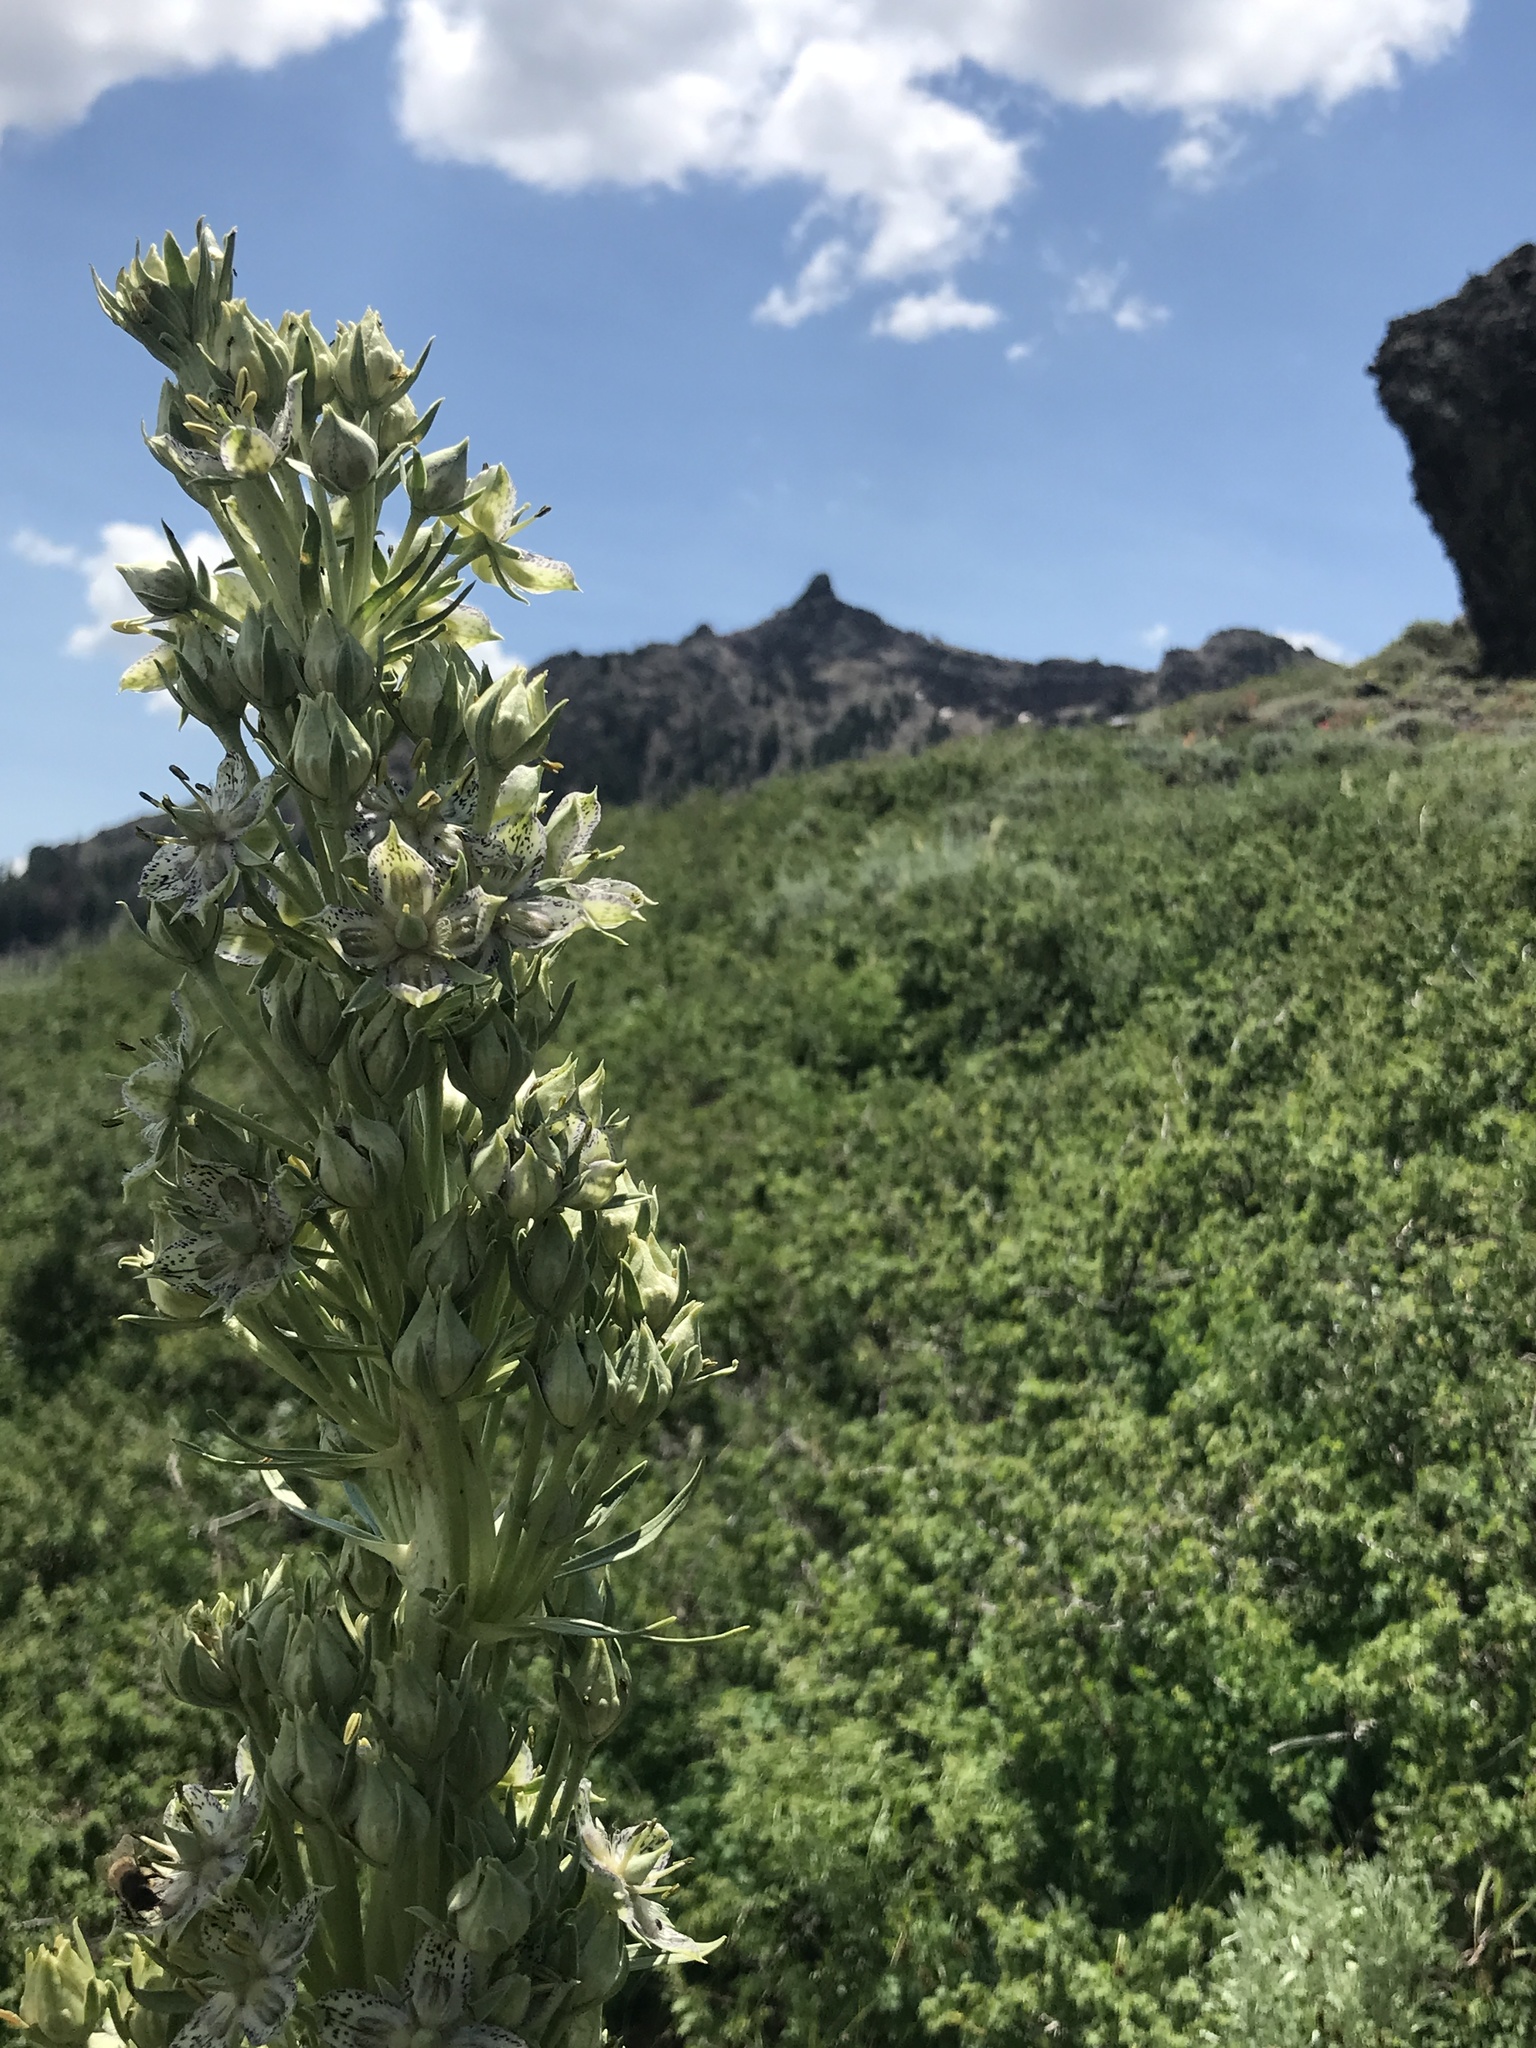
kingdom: Plantae
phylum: Tracheophyta
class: Magnoliopsida
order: Gentianales
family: Gentianaceae
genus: Frasera
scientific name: Frasera speciosa
